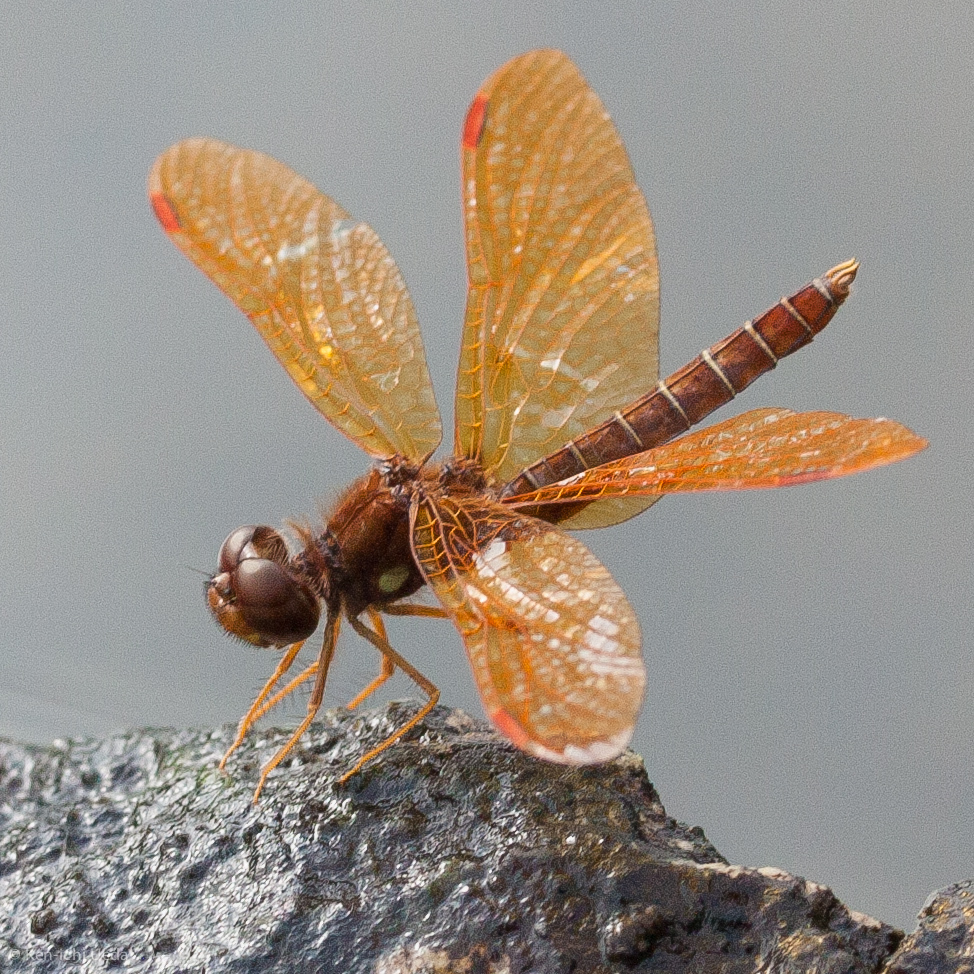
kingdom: Animalia
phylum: Arthropoda
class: Insecta
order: Odonata
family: Libellulidae
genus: Perithemis
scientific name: Perithemis tenera
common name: Eastern amberwing
